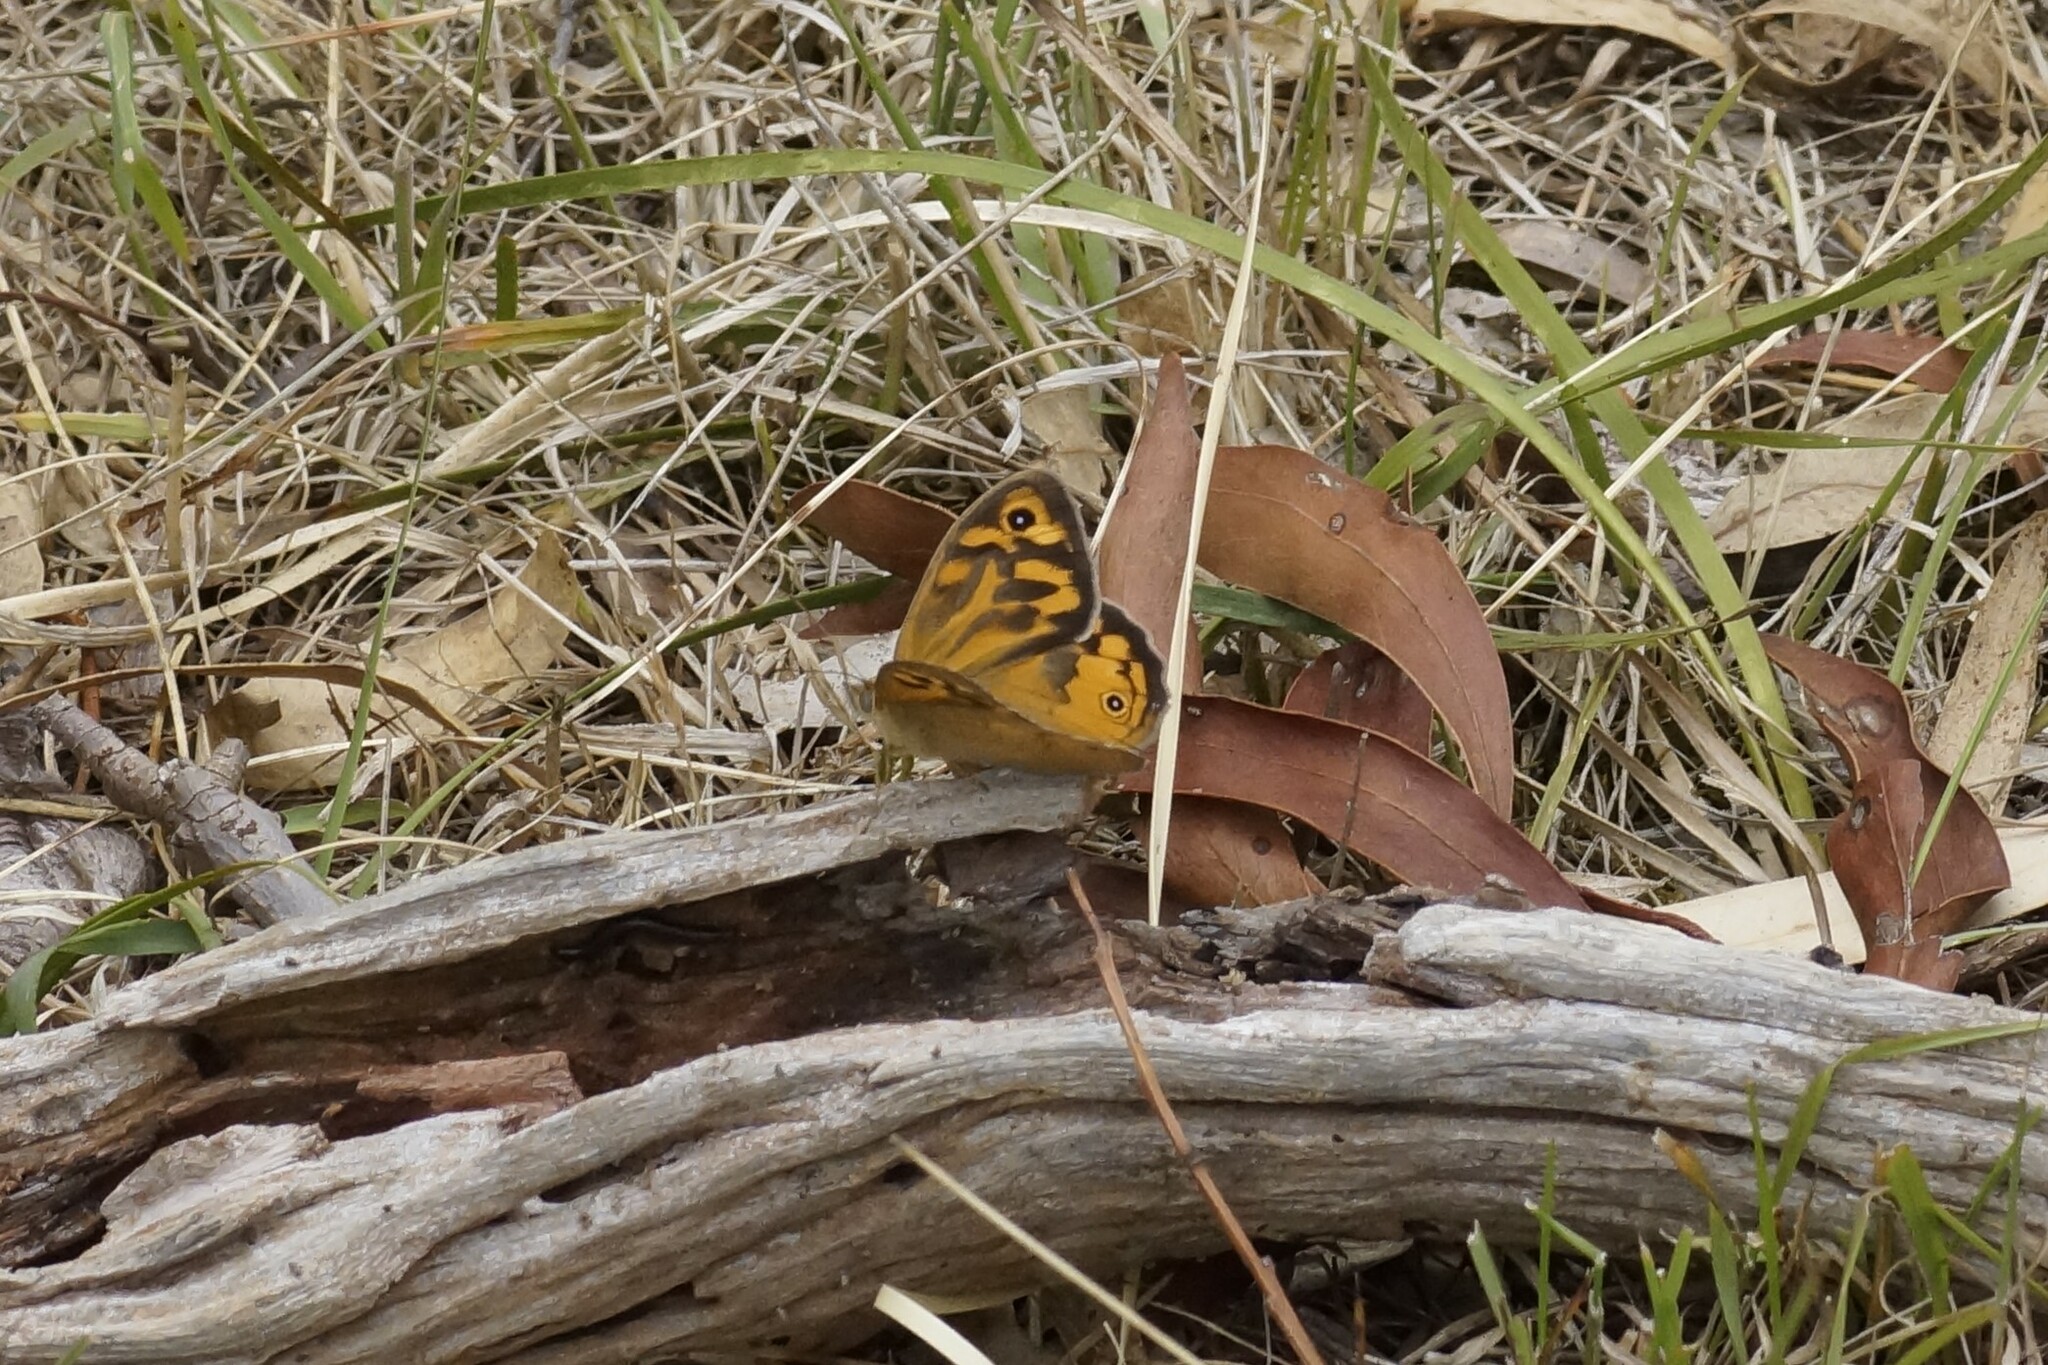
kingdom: Animalia
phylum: Arthropoda
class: Insecta
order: Lepidoptera
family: Nymphalidae
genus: Heteronympha
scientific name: Heteronympha merope
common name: Common brown
